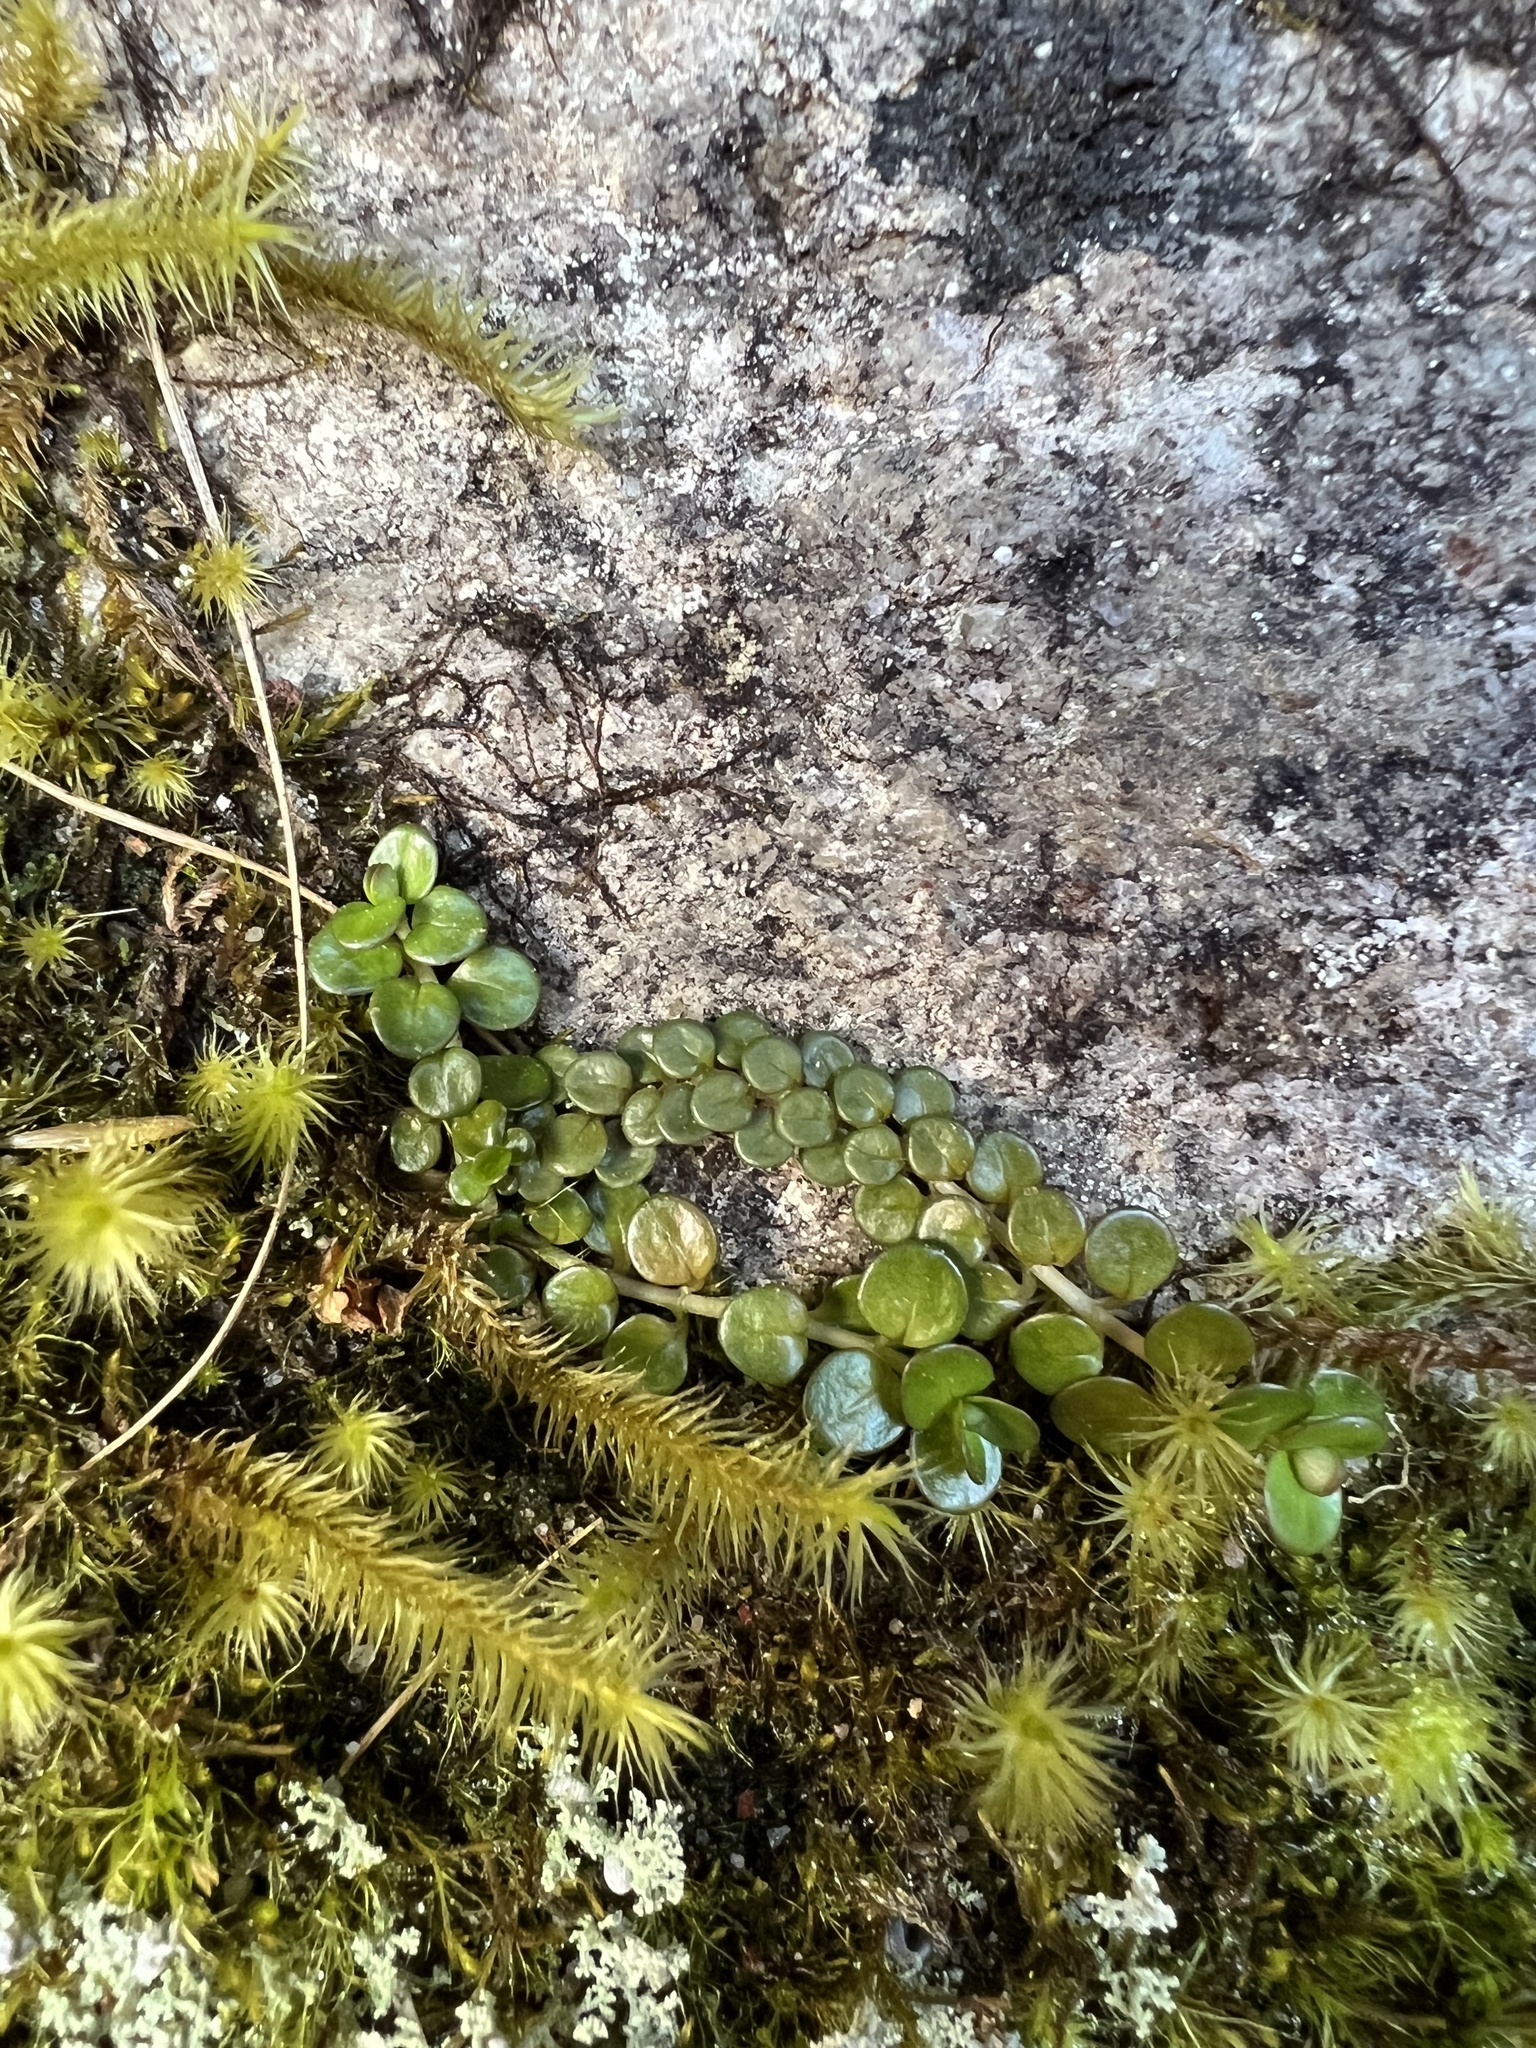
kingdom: Plantae
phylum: Tracheophyta
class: Magnoliopsida
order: Myrtales
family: Onagraceae
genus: Epilobium
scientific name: Epilobium brunnescens
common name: New zealand willowherb
